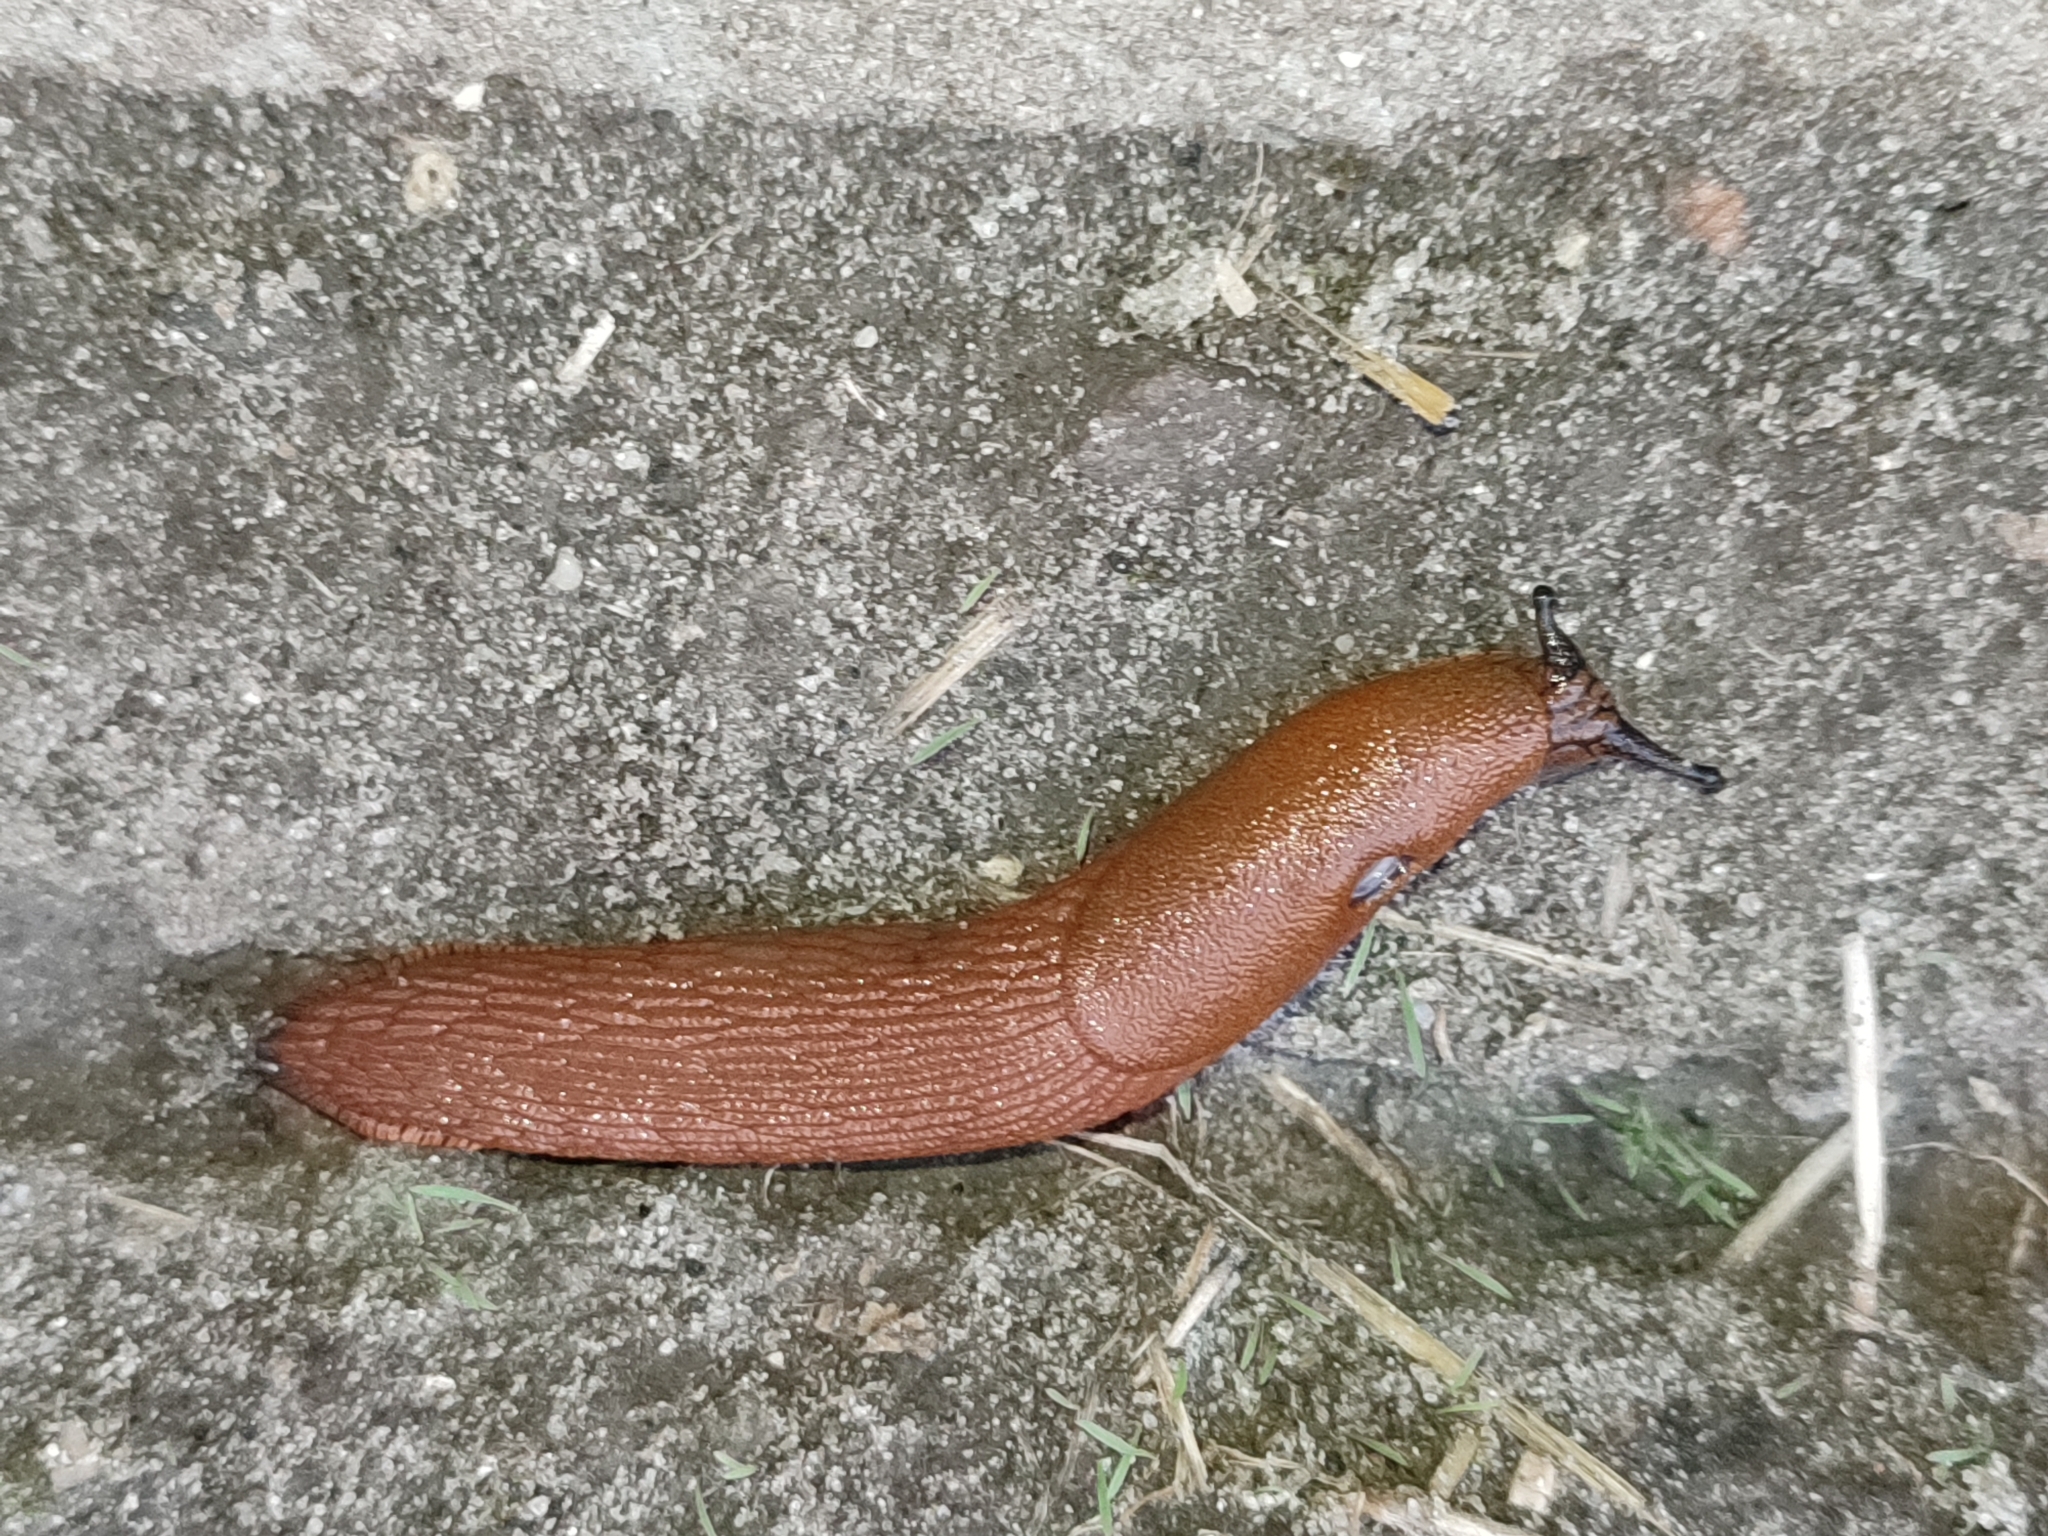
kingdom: Animalia
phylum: Mollusca
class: Gastropoda
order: Stylommatophora
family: Arionidae
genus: Arion
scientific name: Arion vulgaris
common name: Lusitanian slug
